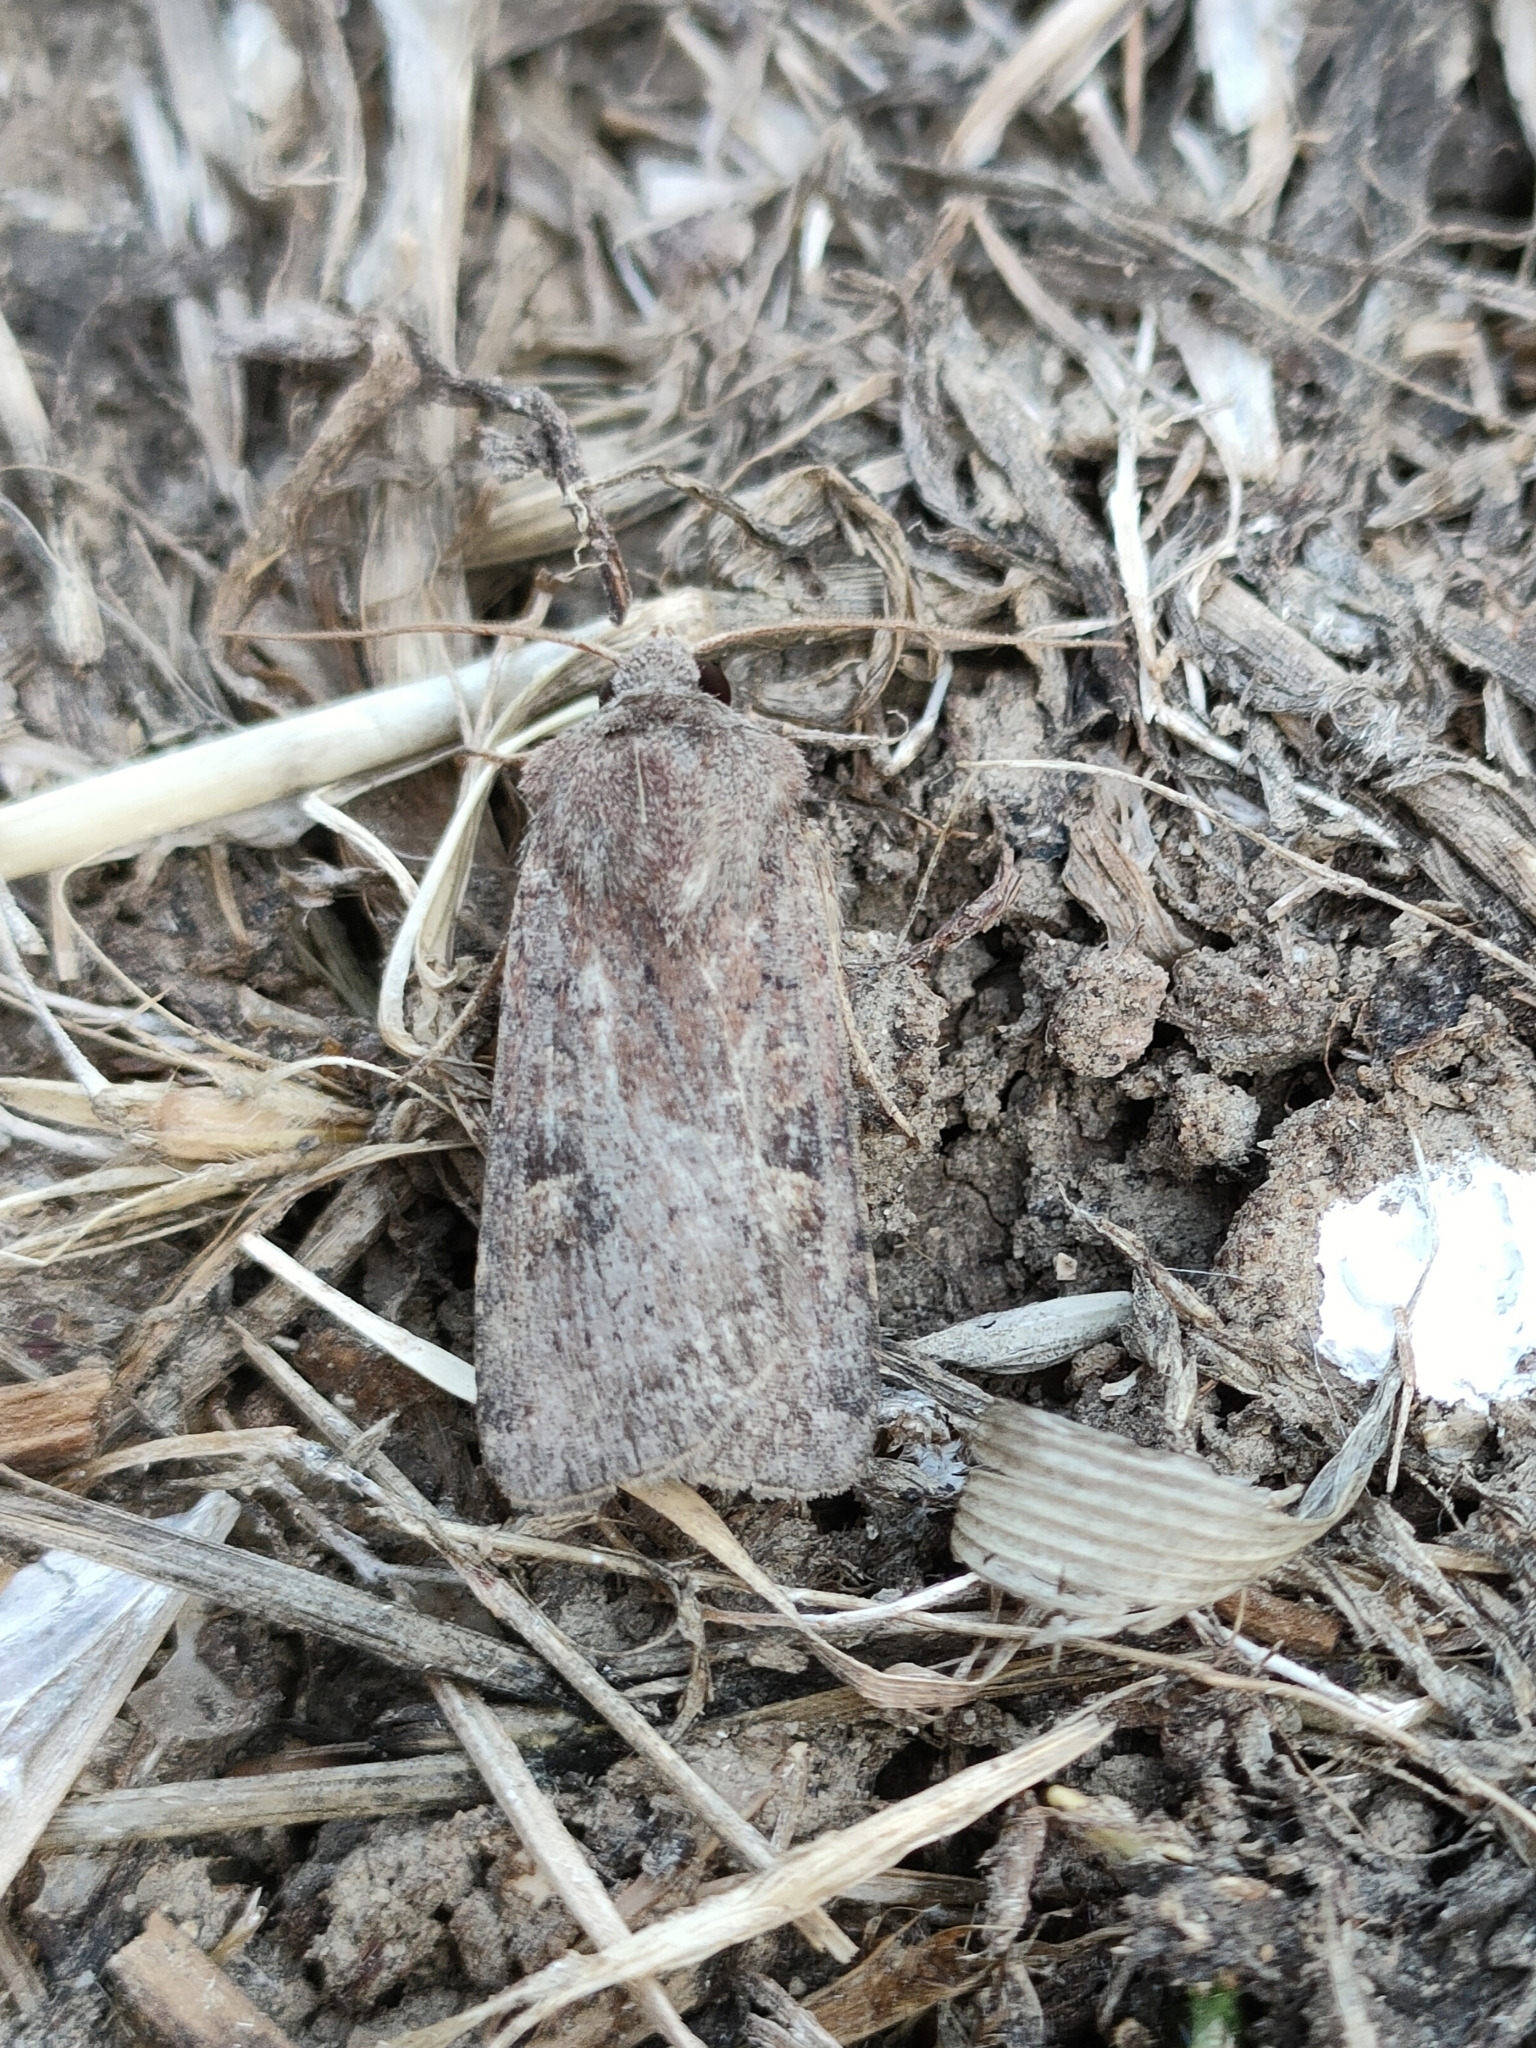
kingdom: Animalia
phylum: Arthropoda
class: Insecta
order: Lepidoptera
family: Noctuidae
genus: Xestia
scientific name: Xestia xanthographa
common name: Square-spot rustic
